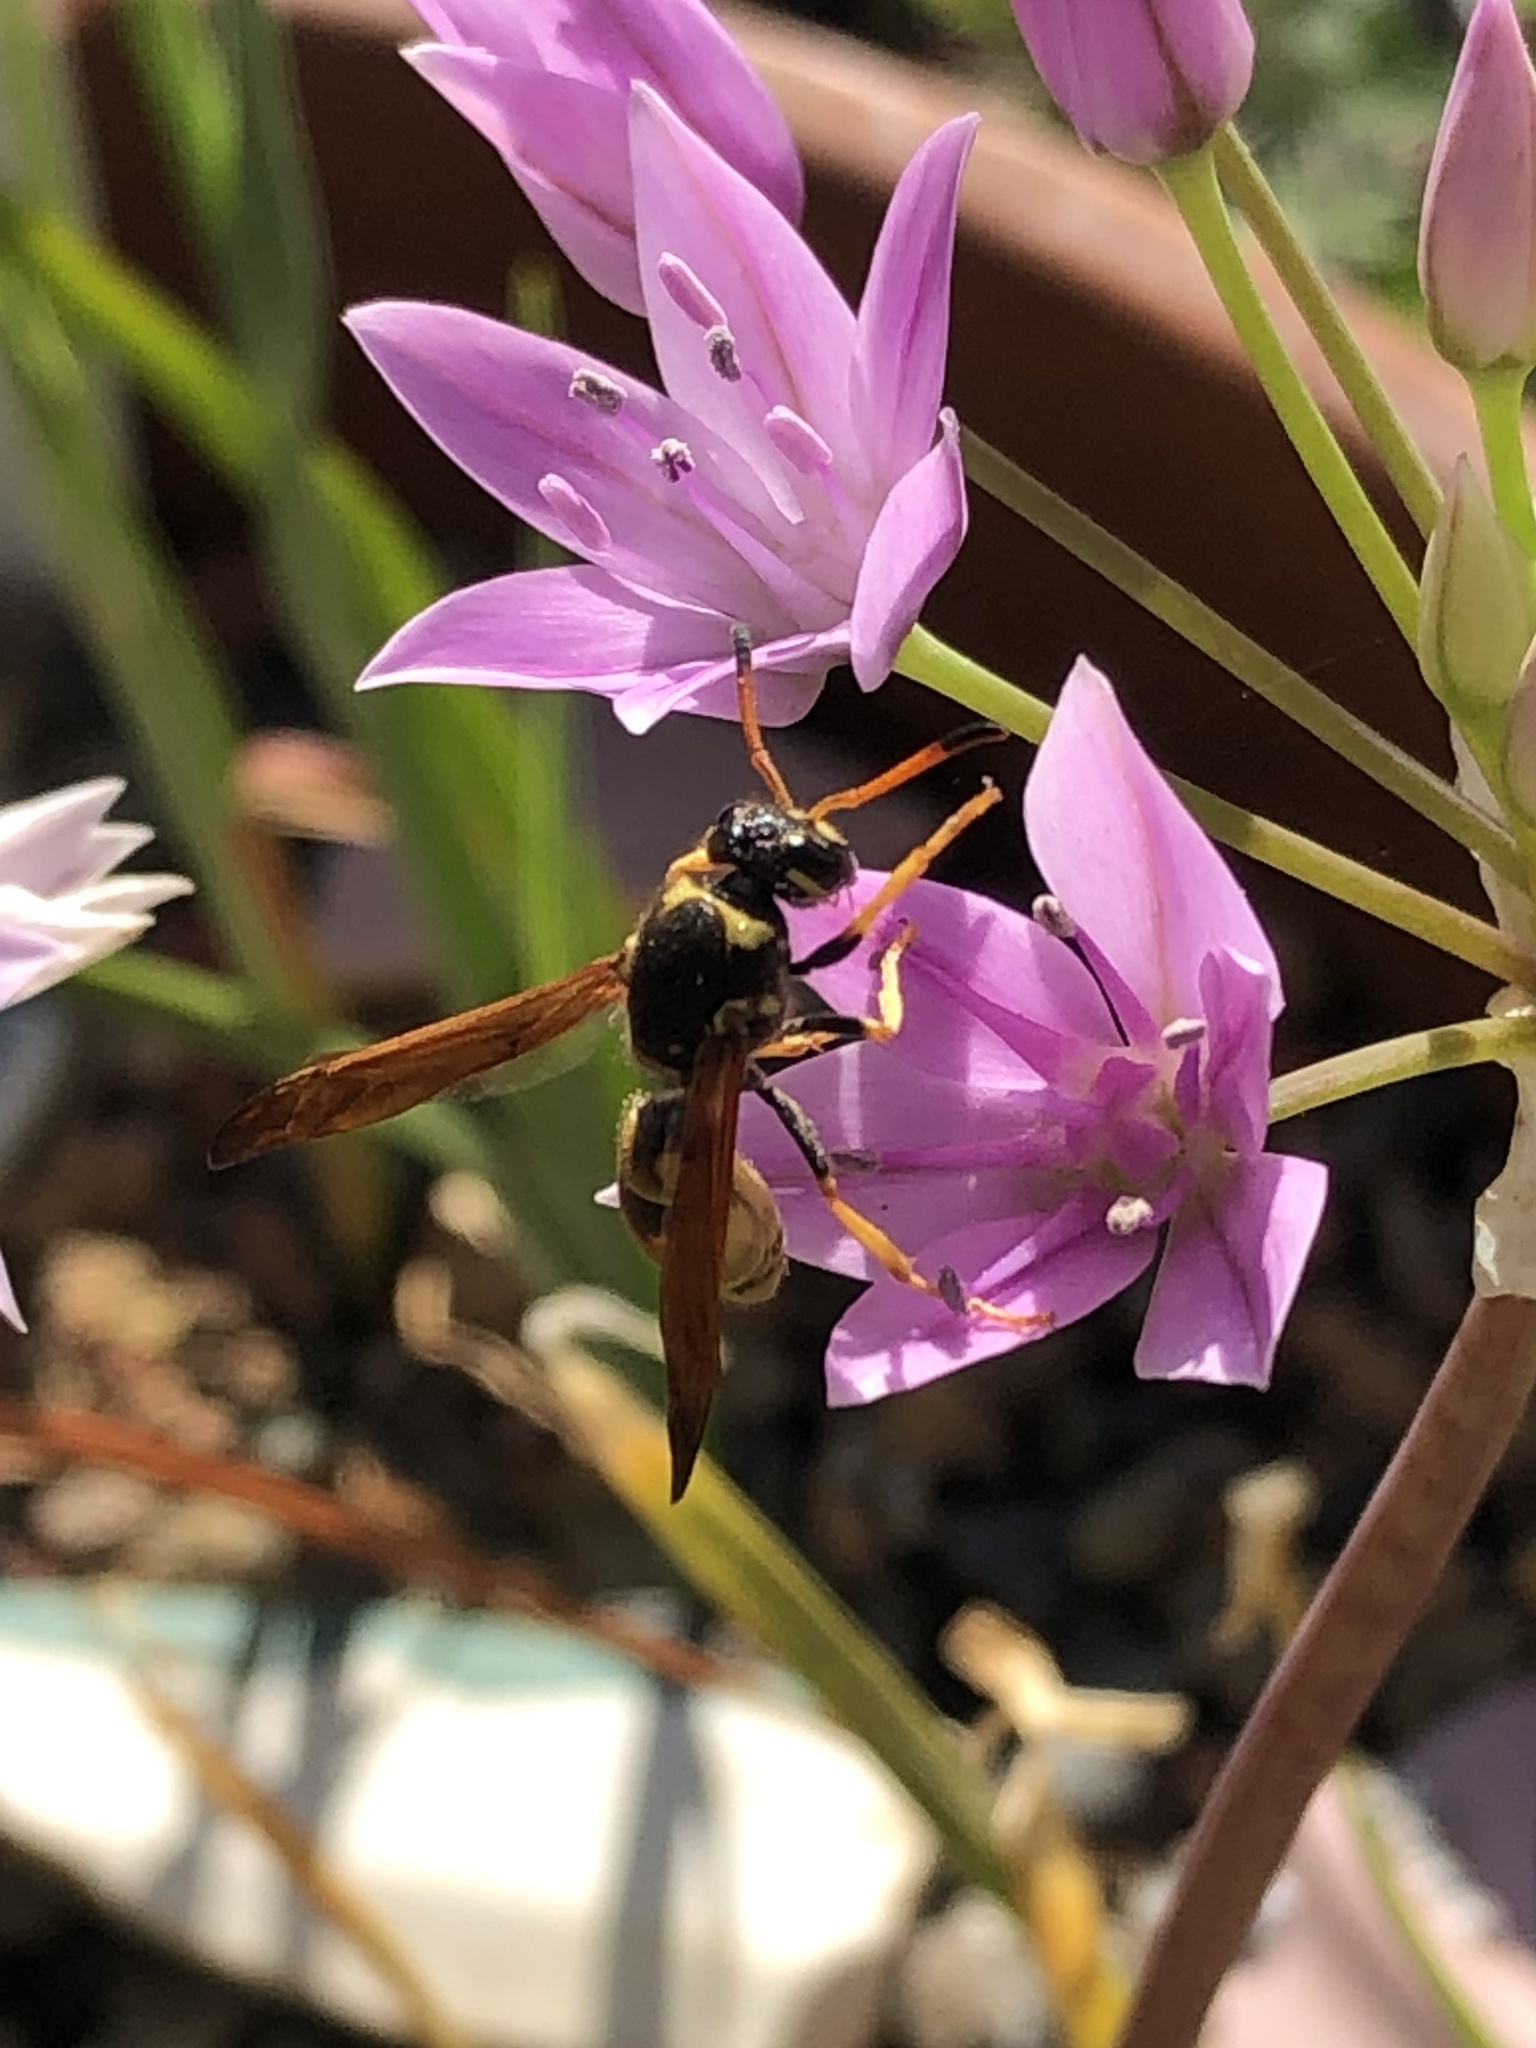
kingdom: Animalia
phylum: Arthropoda
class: Insecta
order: Hymenoptera
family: Vespidae
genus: Ancistrocerus
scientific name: Ancistrocerus
